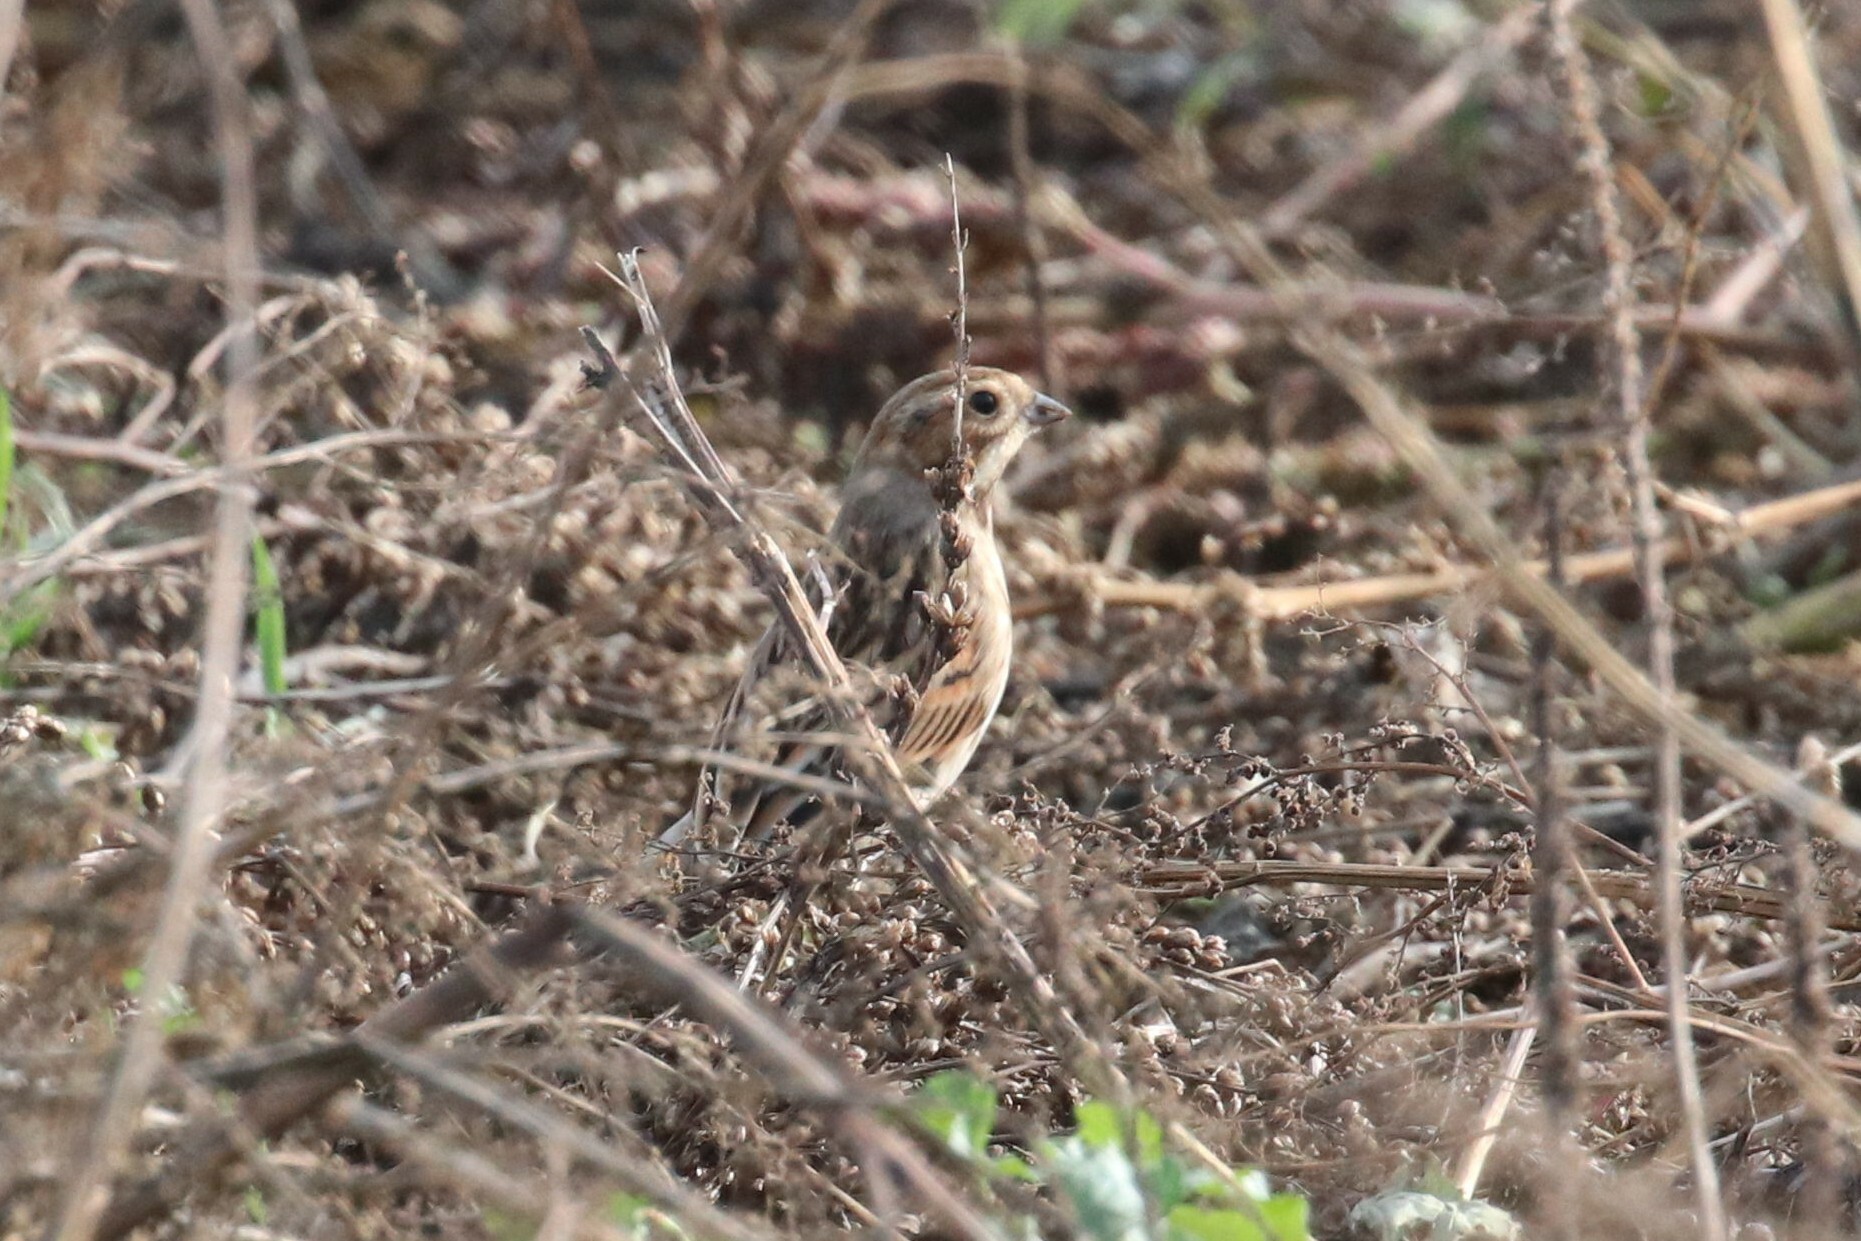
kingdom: Animalia
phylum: Chordata
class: Aves
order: Passeriformes
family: Emberizidae
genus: Emberiza
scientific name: Emberiza schoeniclus
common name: Reed bunting
